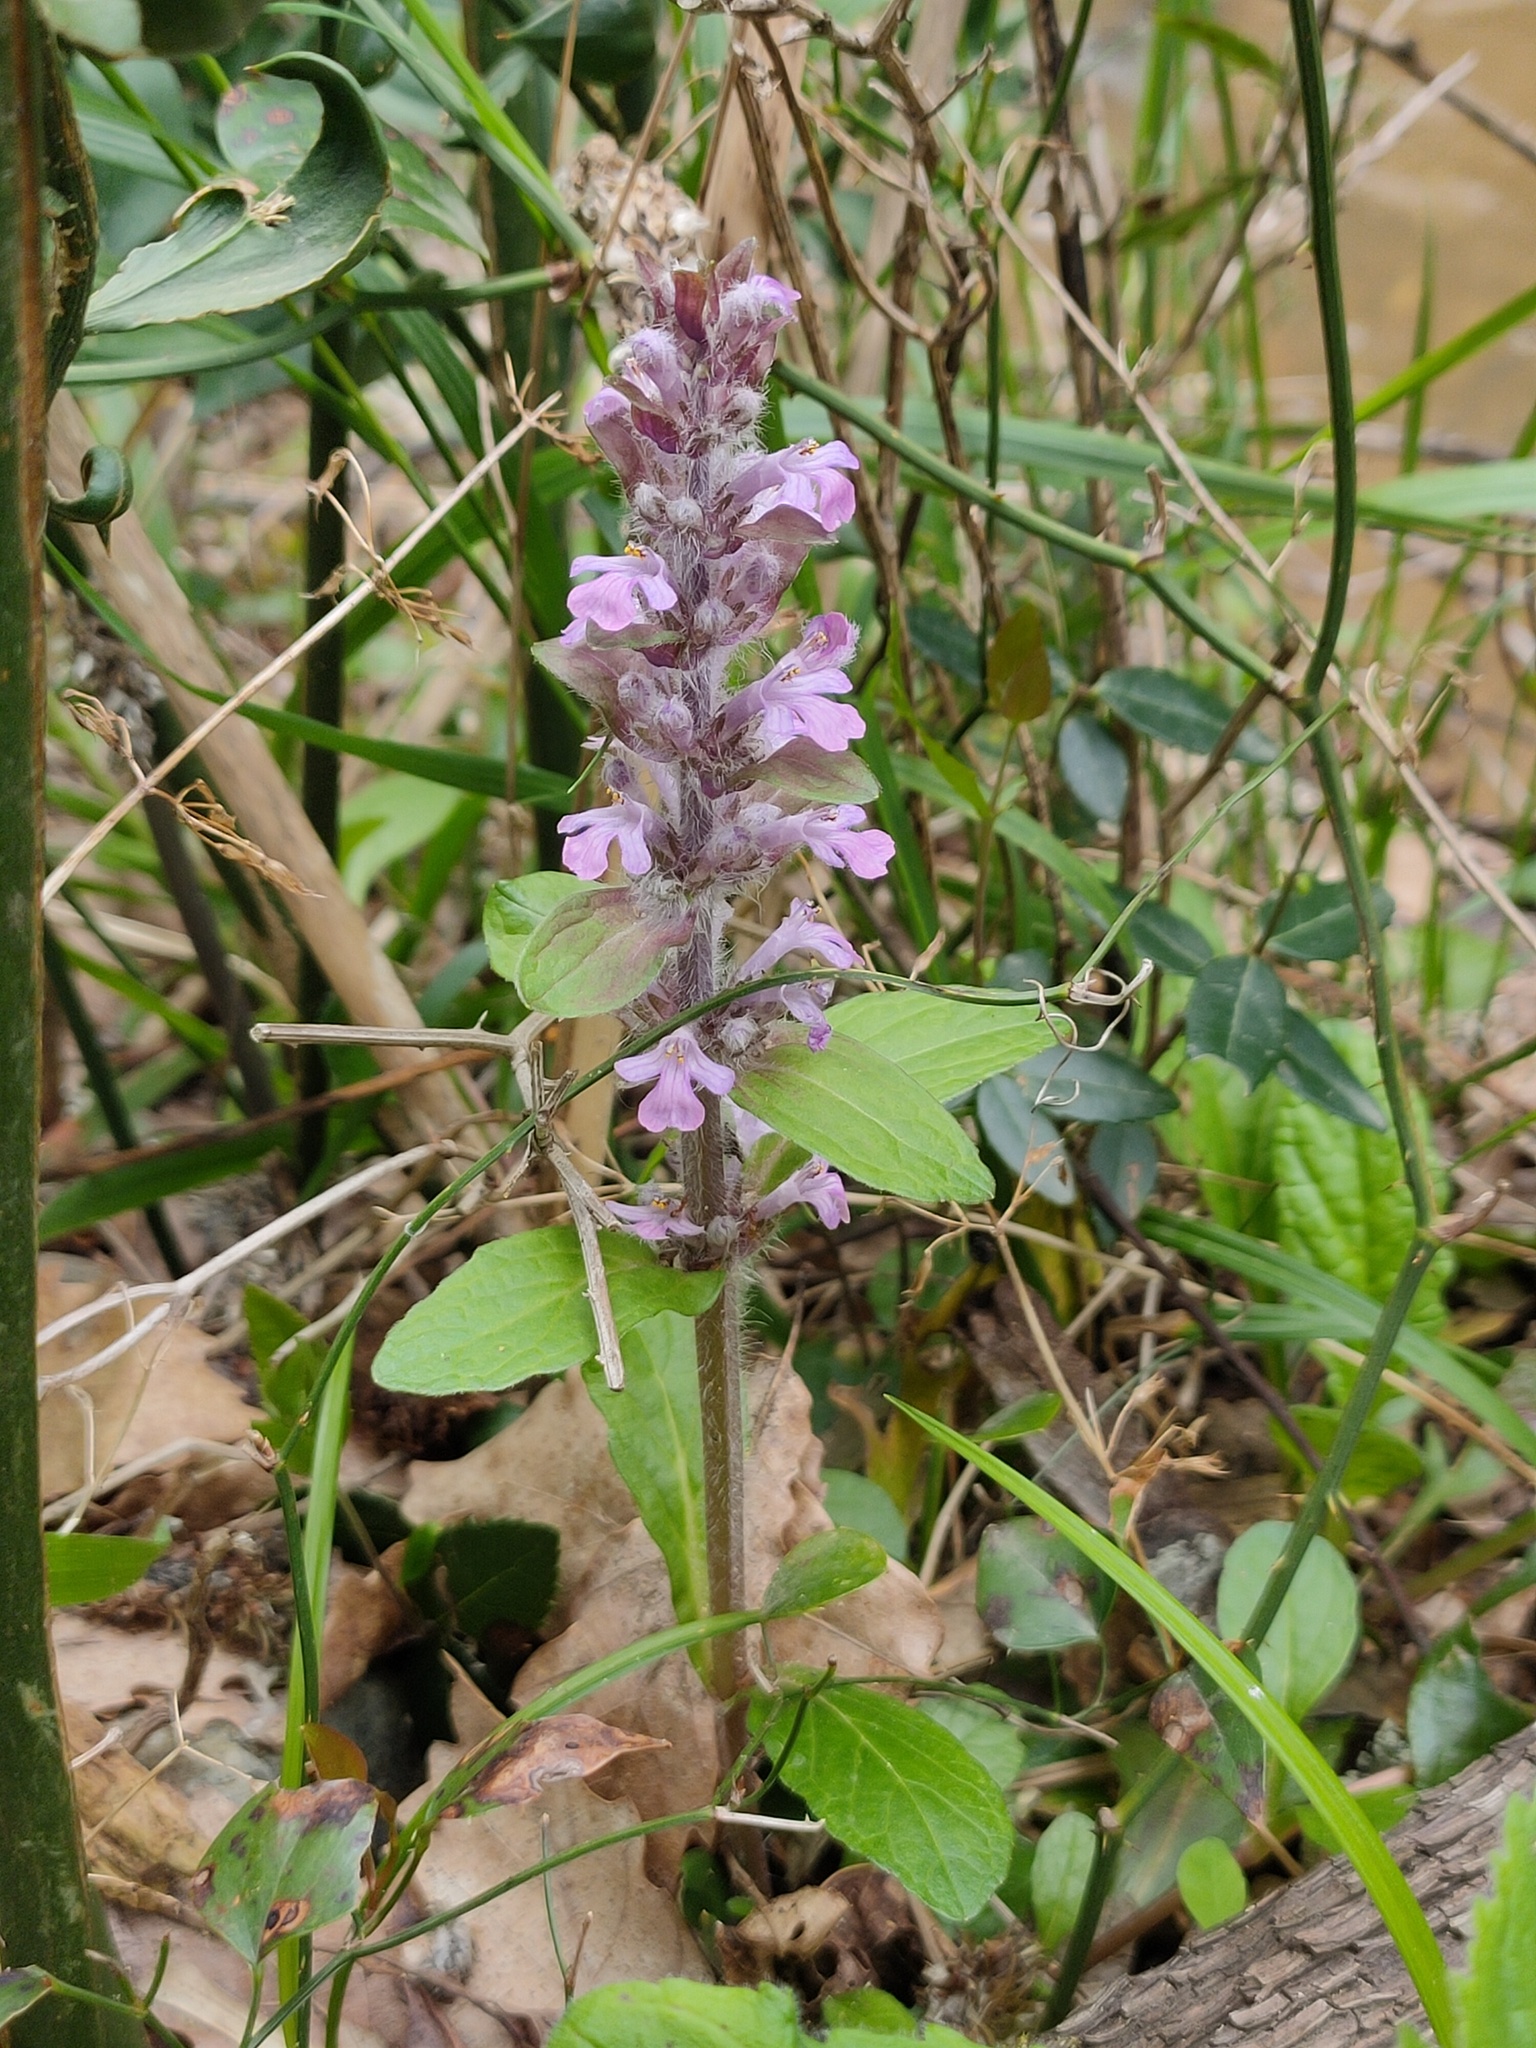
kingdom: Plantae
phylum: Tracheophyta
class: Magnoliopsida
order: Lamiales
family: Lamiaceae
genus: Ajuga
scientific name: Ajuga reptans
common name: Bugle
